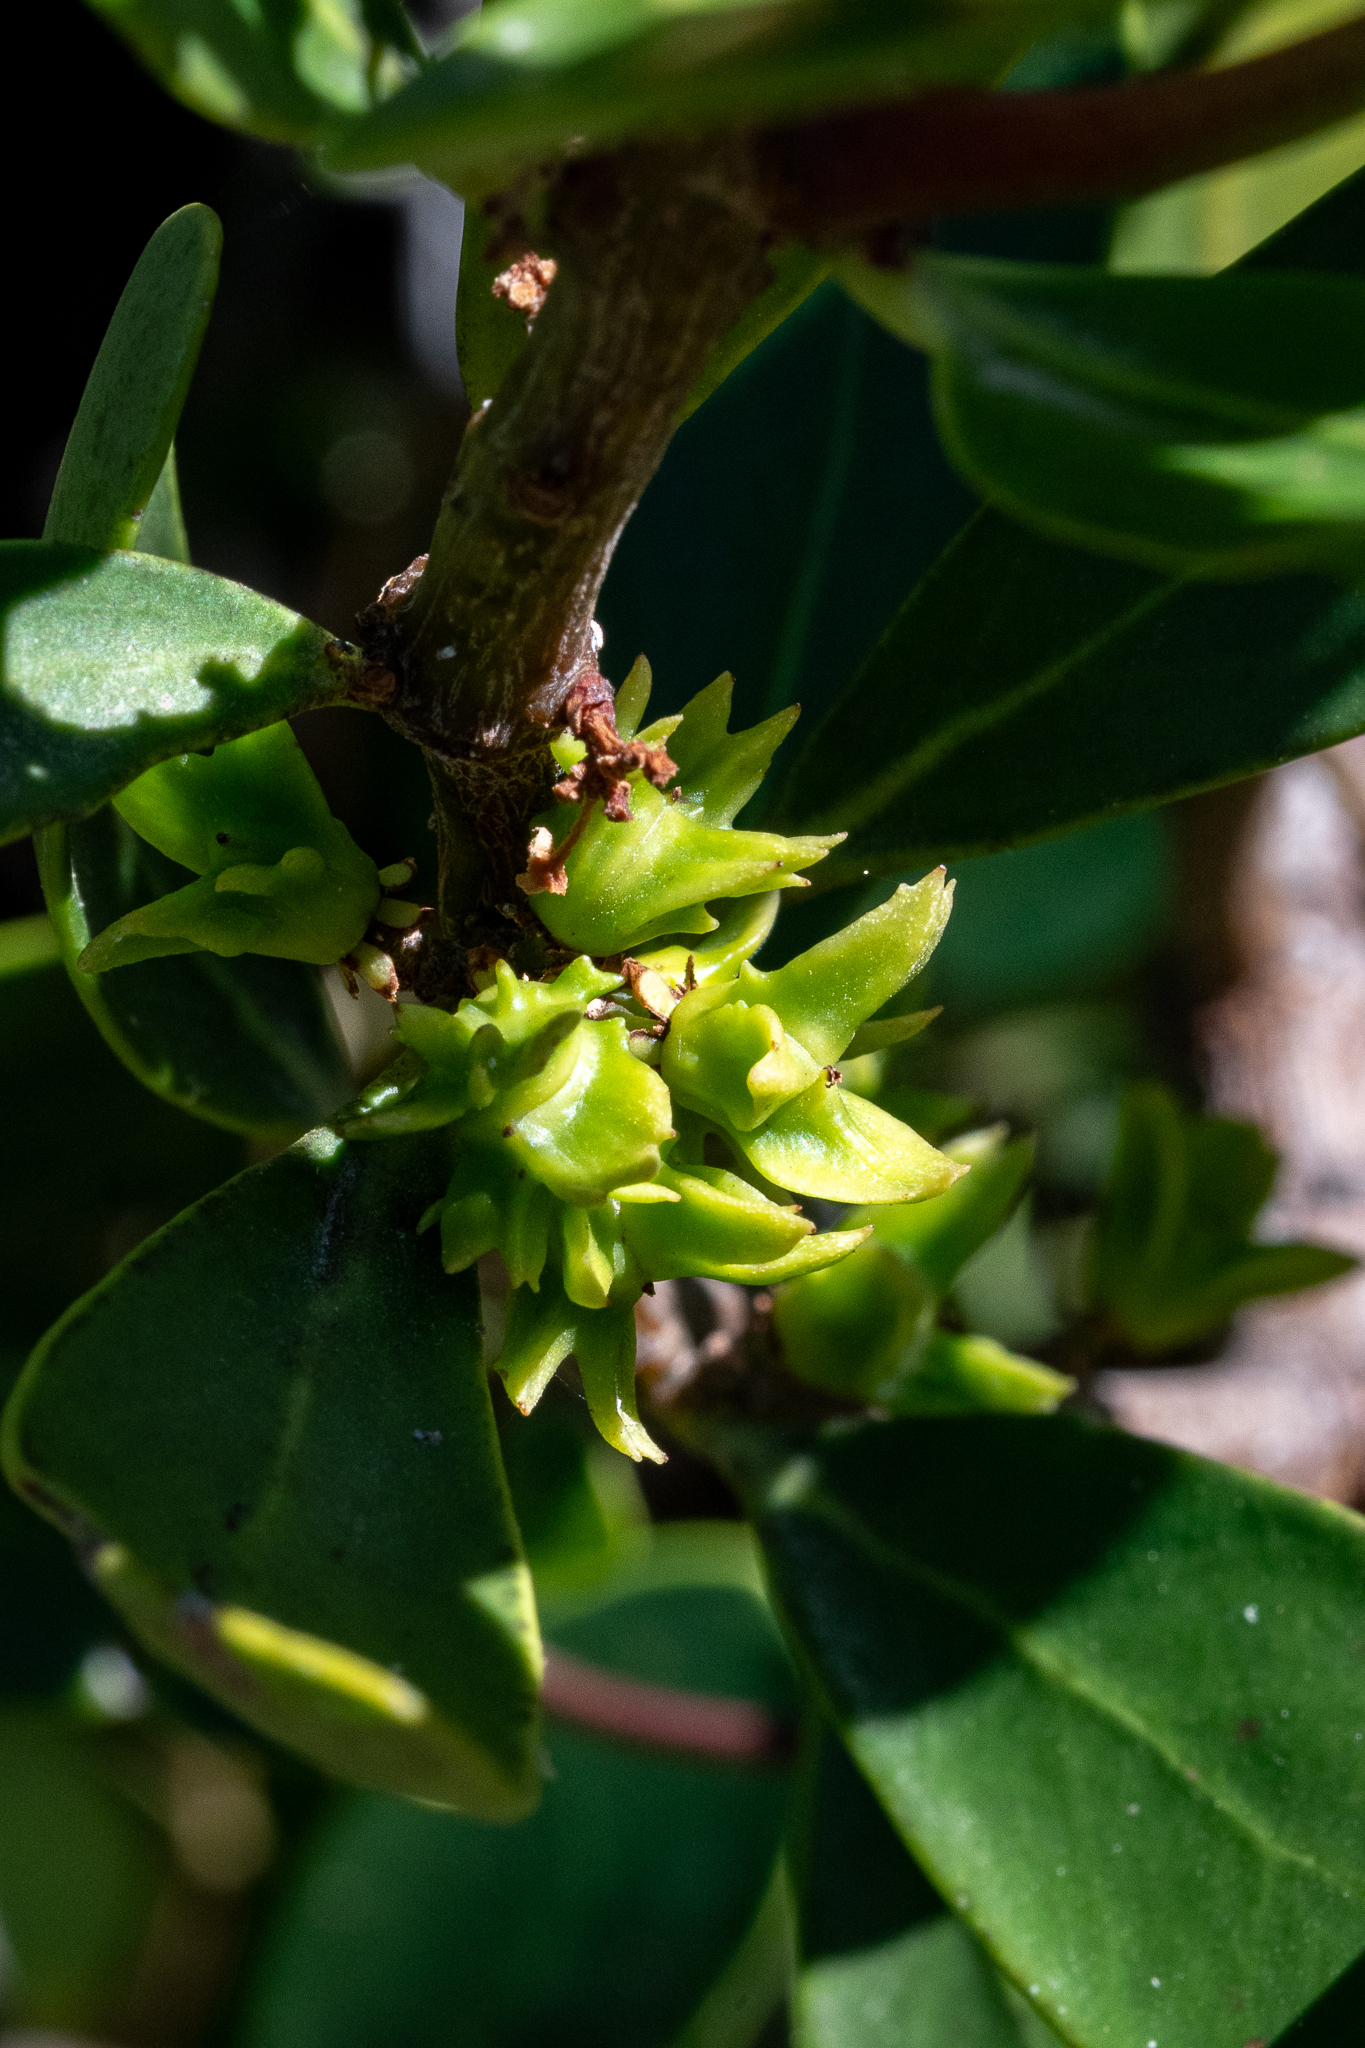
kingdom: Plantae
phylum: Tracheophyta
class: Magnoliopsida
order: Celastrales
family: Celastraceae
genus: Pterocelastrus
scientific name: Pterocelastrus tricuspidatus
